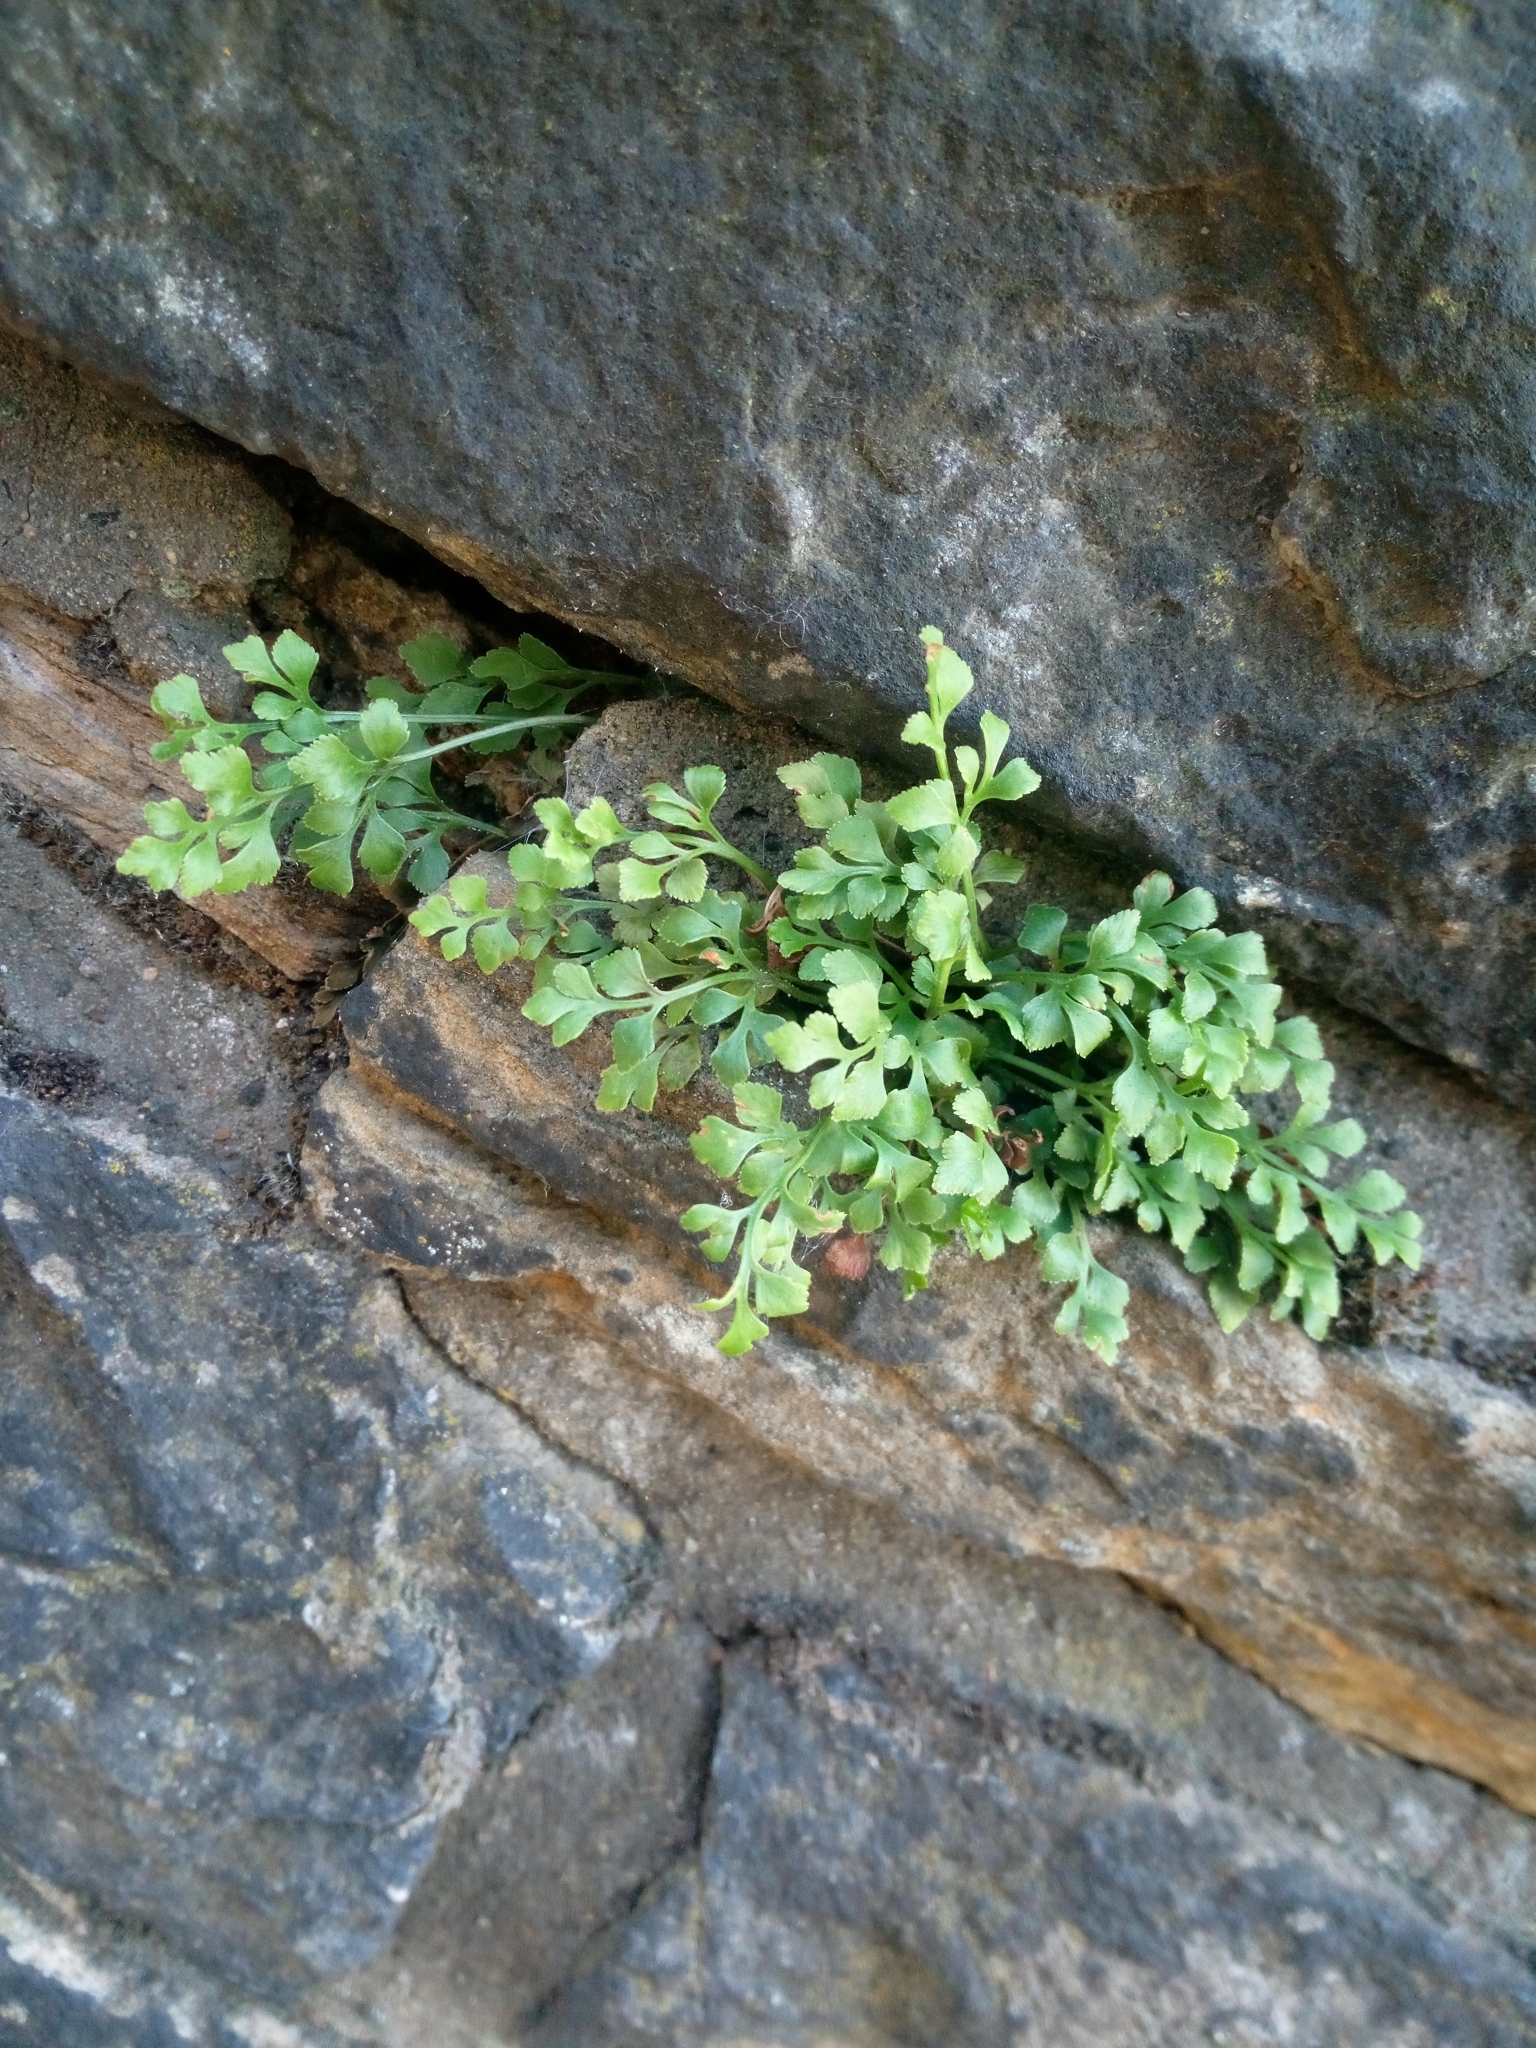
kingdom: Plantae
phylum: Tracheophyta
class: Polypodiopsida
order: Polypodiales
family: Aspleniaceae
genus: Asplenium
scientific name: Asplenium ruta-muraria
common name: Wall-rue
